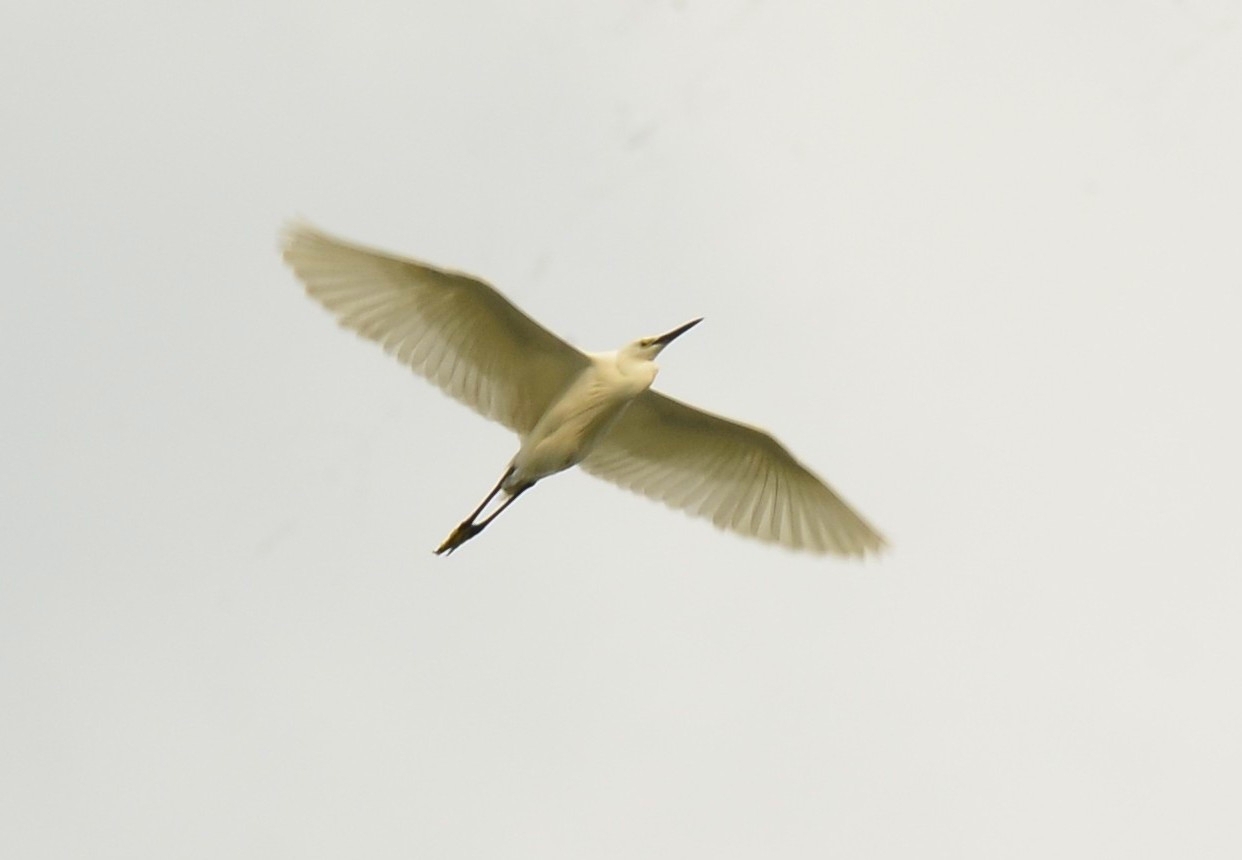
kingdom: Animalia
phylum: Chordata
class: Aves
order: Pelecaniformes
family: Ardeidae
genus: Egretta
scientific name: Egretta garzetta
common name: Little egret
